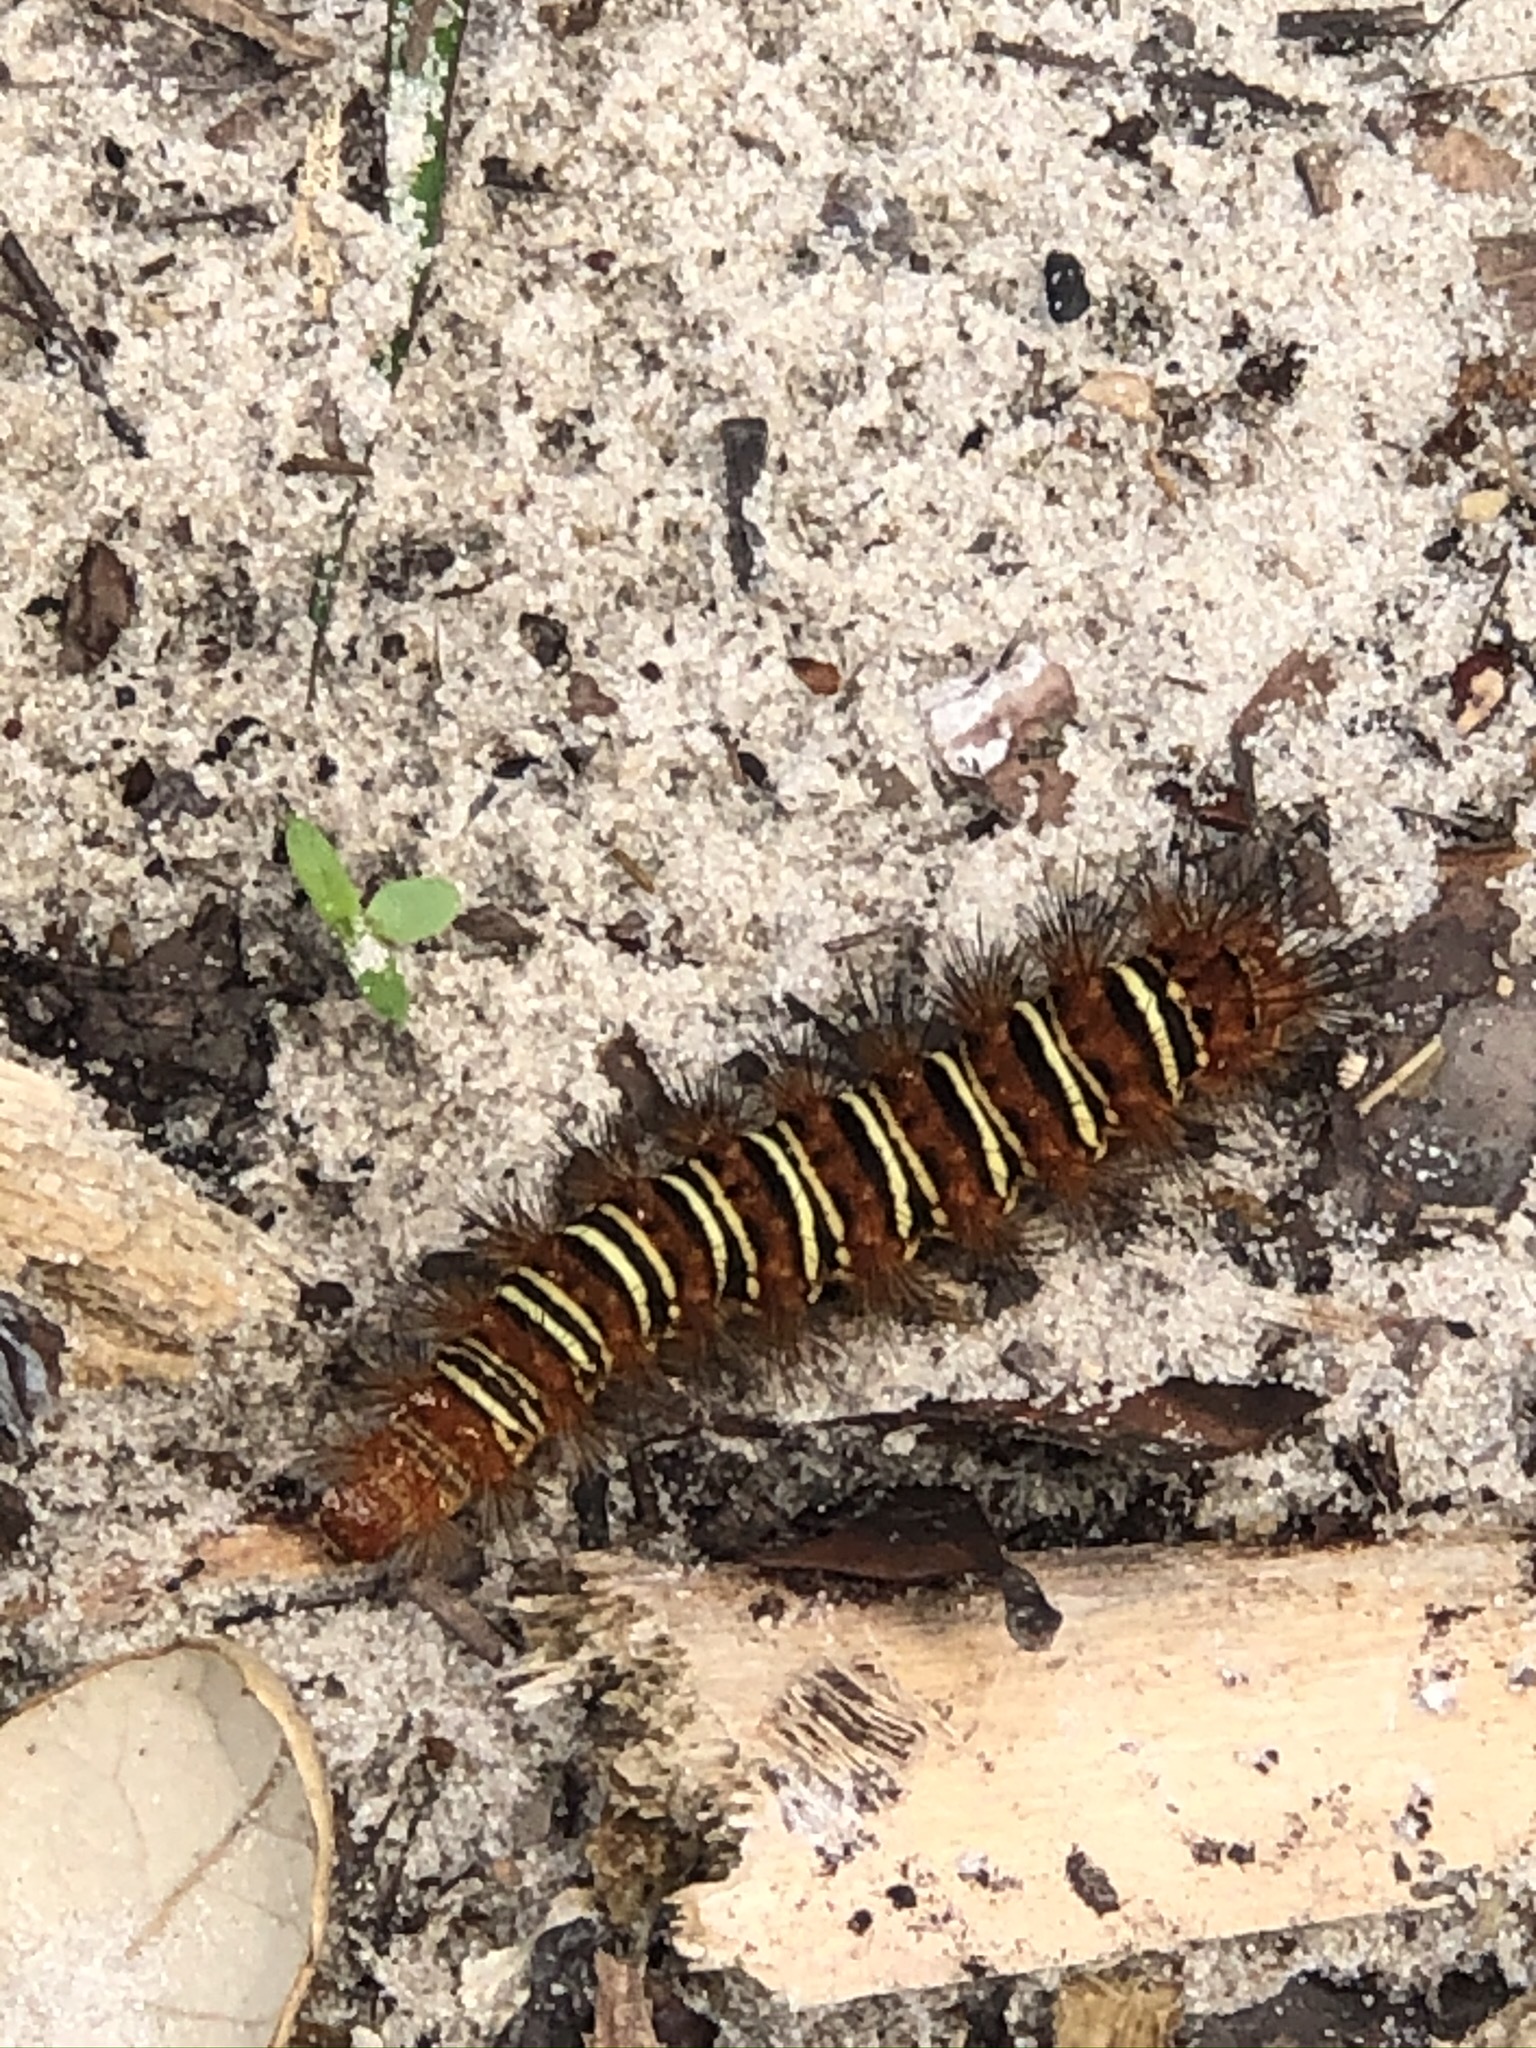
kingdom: Animalia
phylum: Arthropoda
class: Insecta
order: Lepidoptera
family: Erebidae
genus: Seirarctia
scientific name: Seirarctia echo
